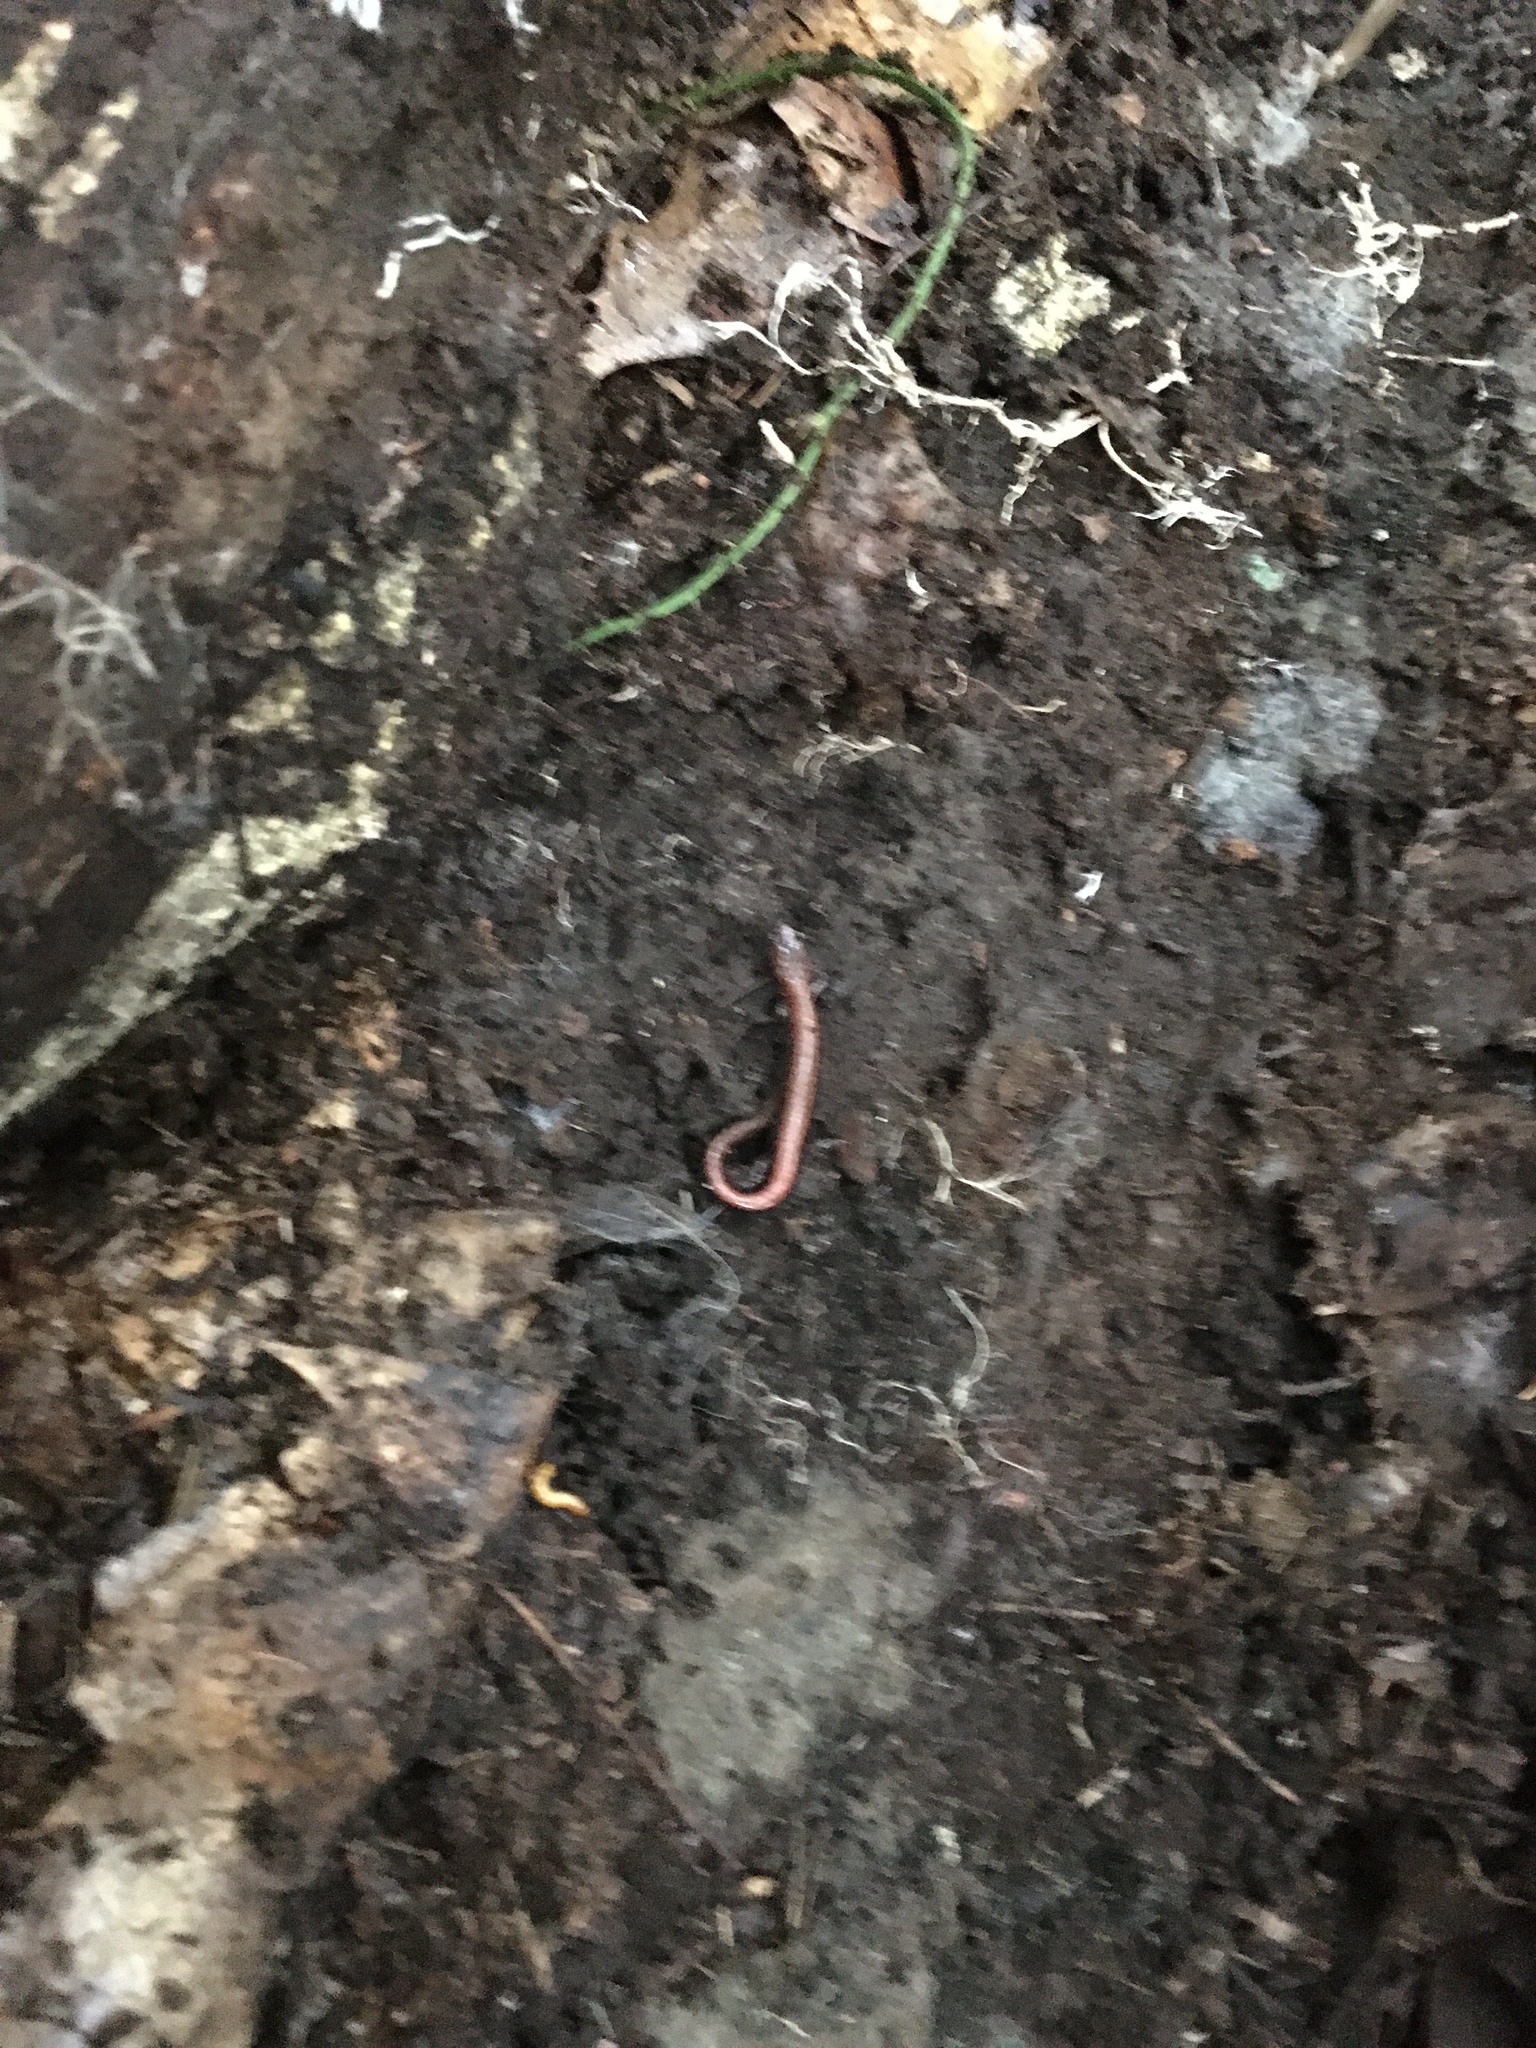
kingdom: Animalia
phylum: Chordata
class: Amphibia
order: Caudata
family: Plethodontidae
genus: Plethodon
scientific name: Plethodon cinereus
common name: Redback salamander
